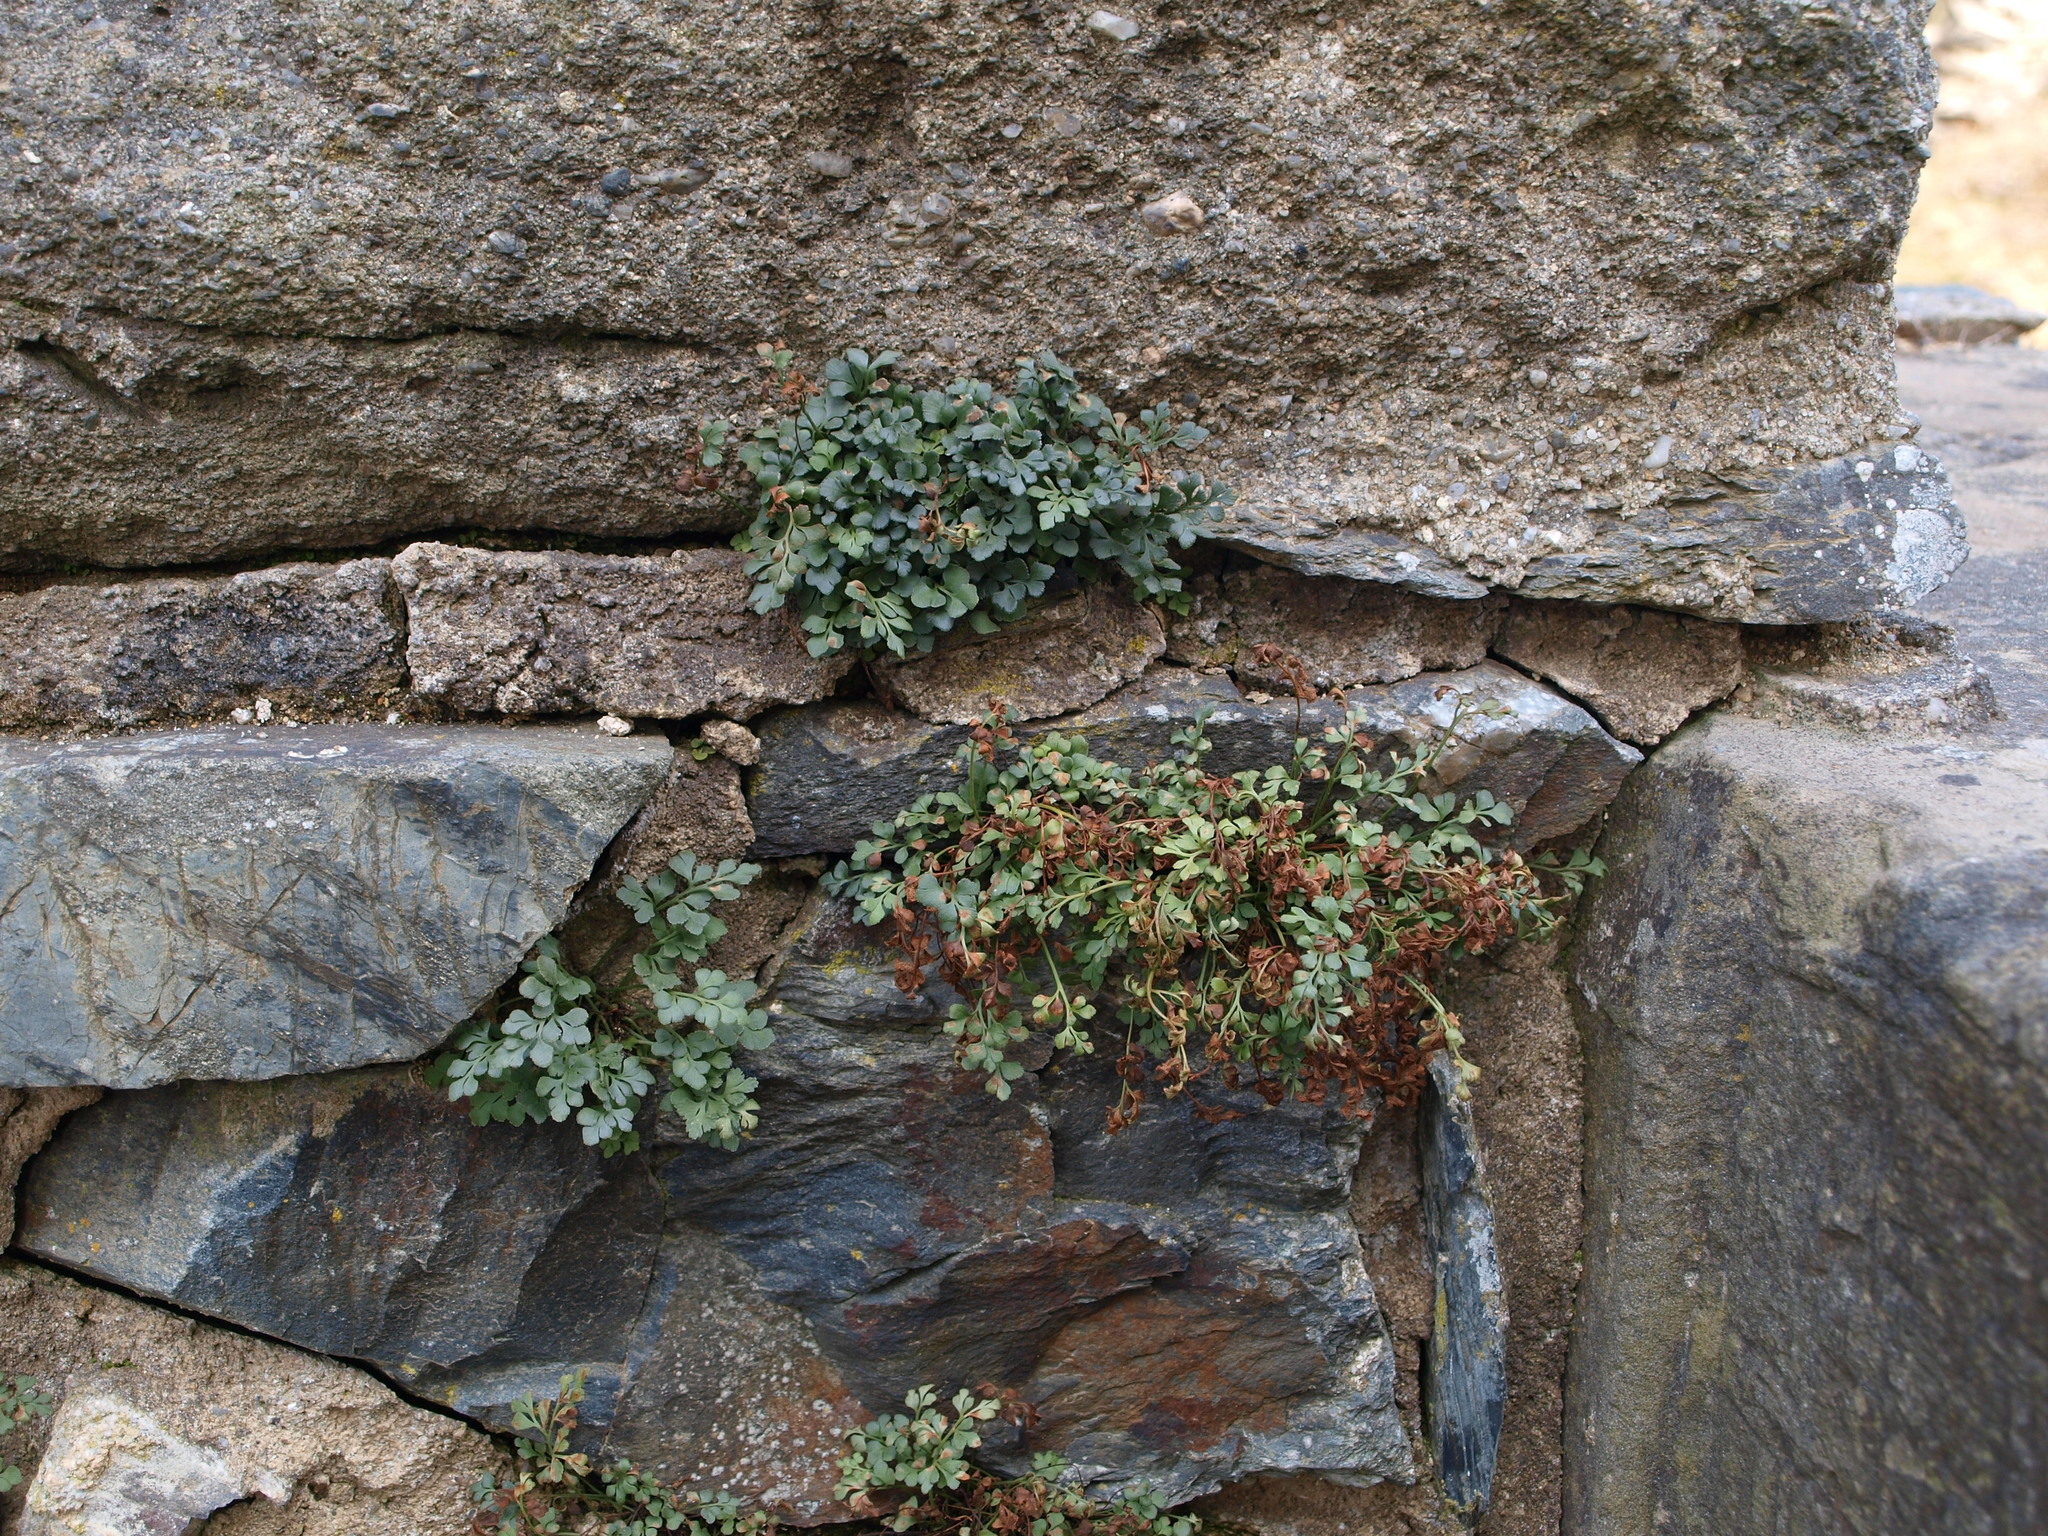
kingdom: Plantae
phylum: Tracheophyta
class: Polypodiopsida
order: Polypodiales
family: Aspleniaceae
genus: Asplenium
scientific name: Asplenium ruta-muraria
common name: Wall-rue
